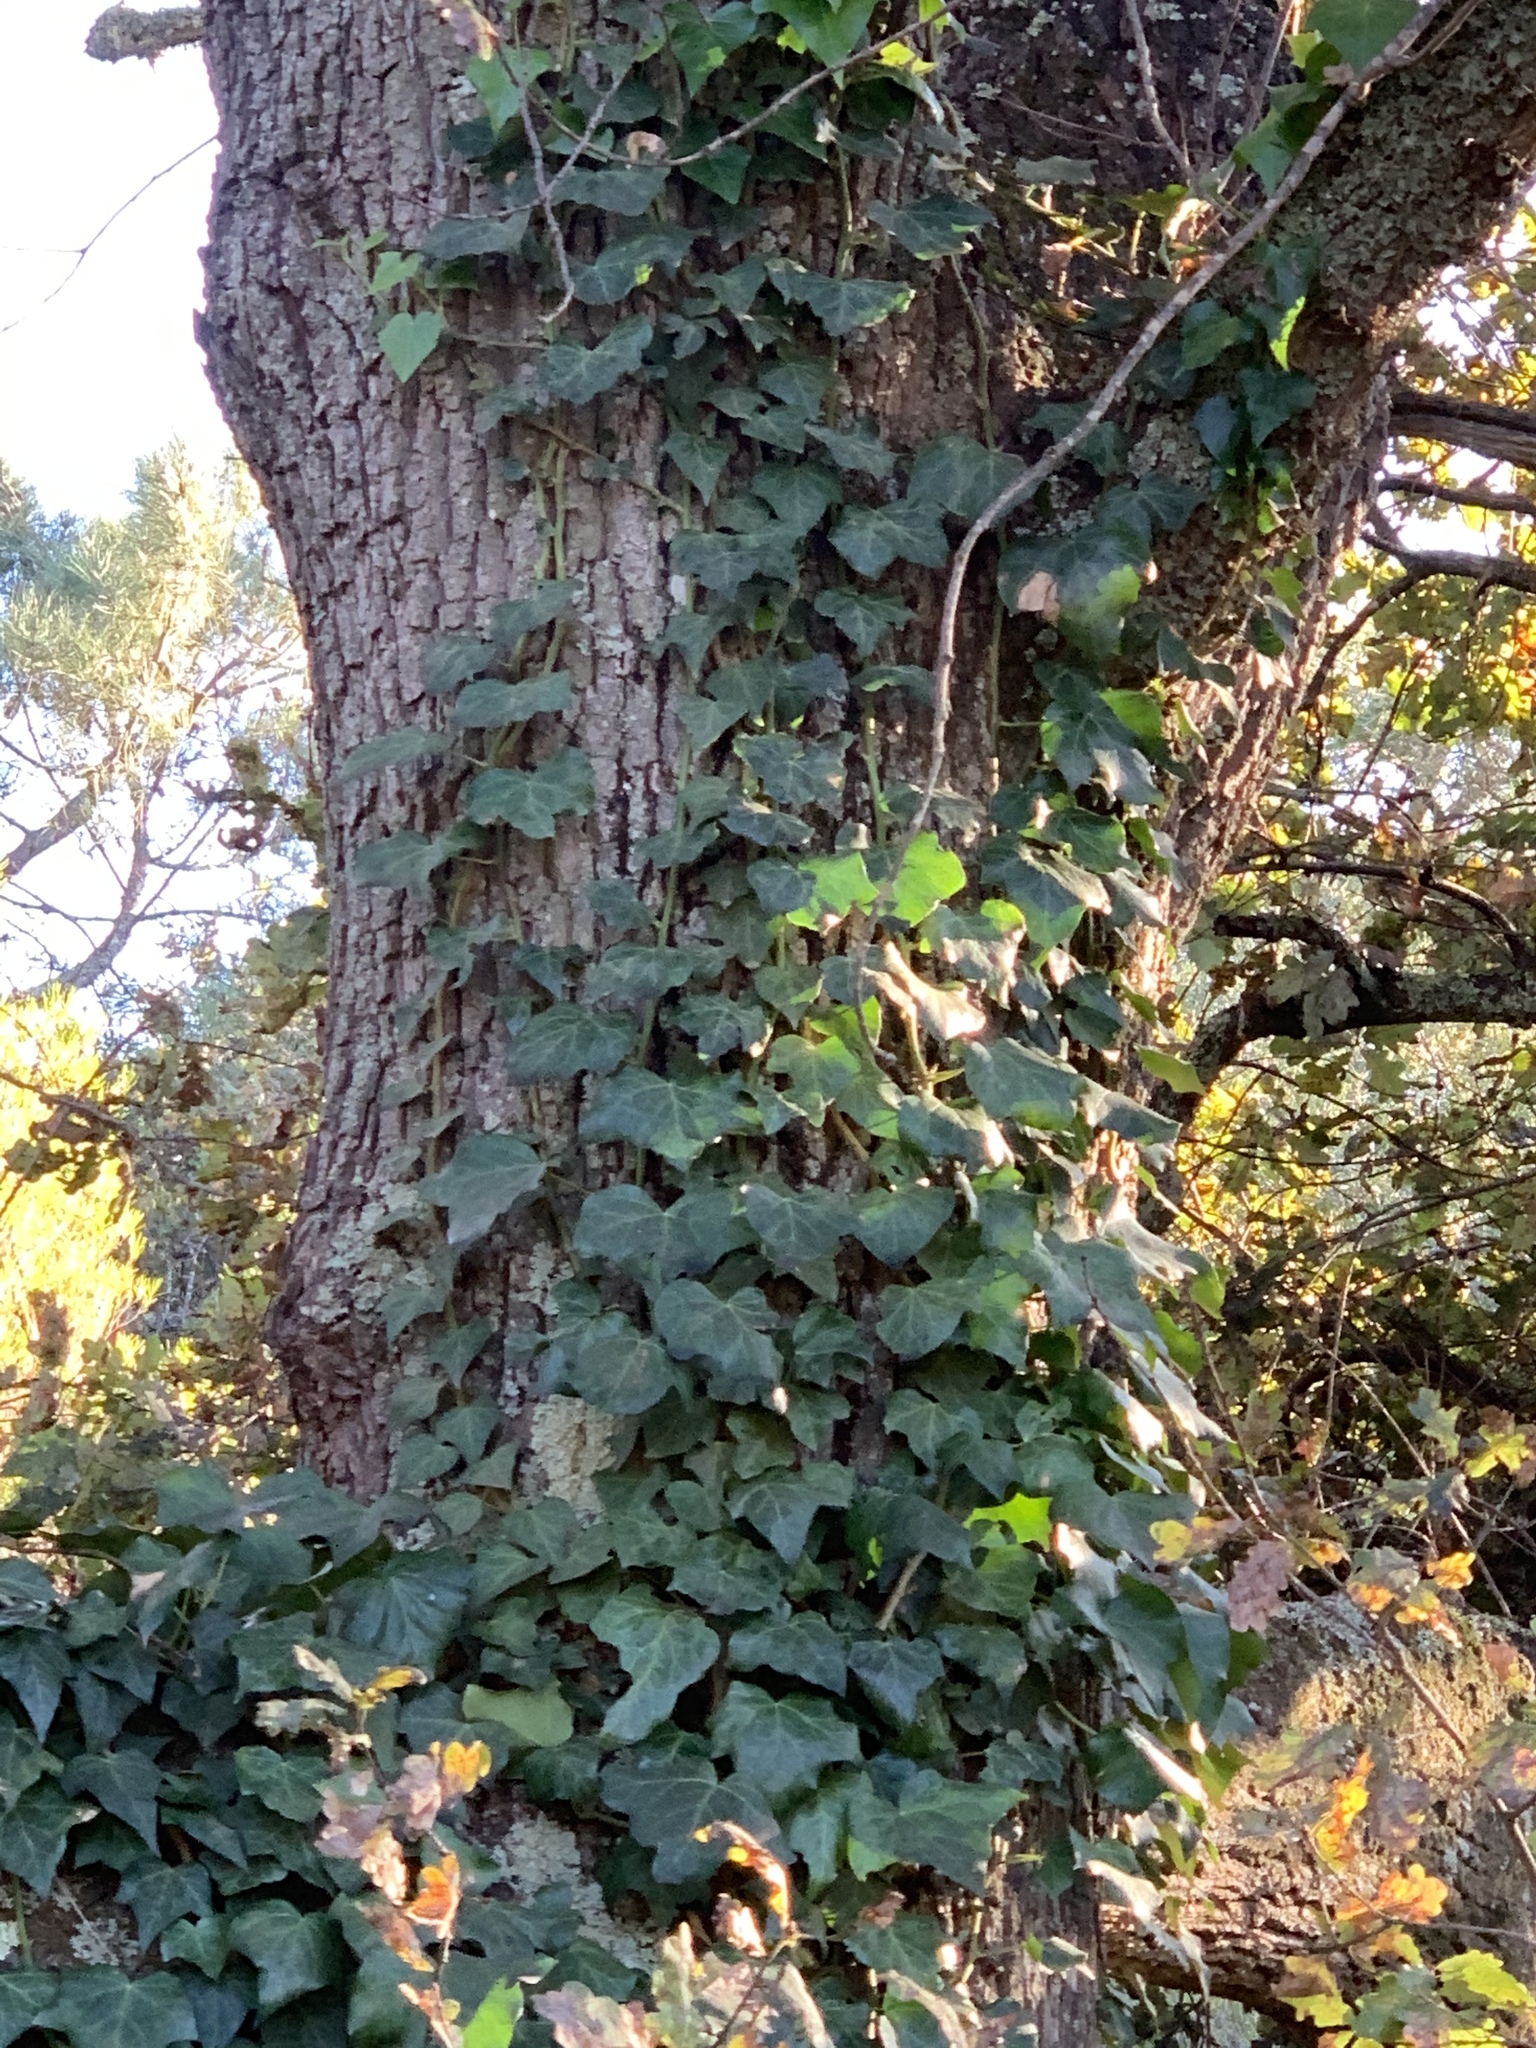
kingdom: Plantae
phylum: Tracheophyta
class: Magnoliopsida
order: Apiales
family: Araliaceae
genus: Hedera
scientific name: Hedera canariensis
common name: Madeira ivy
